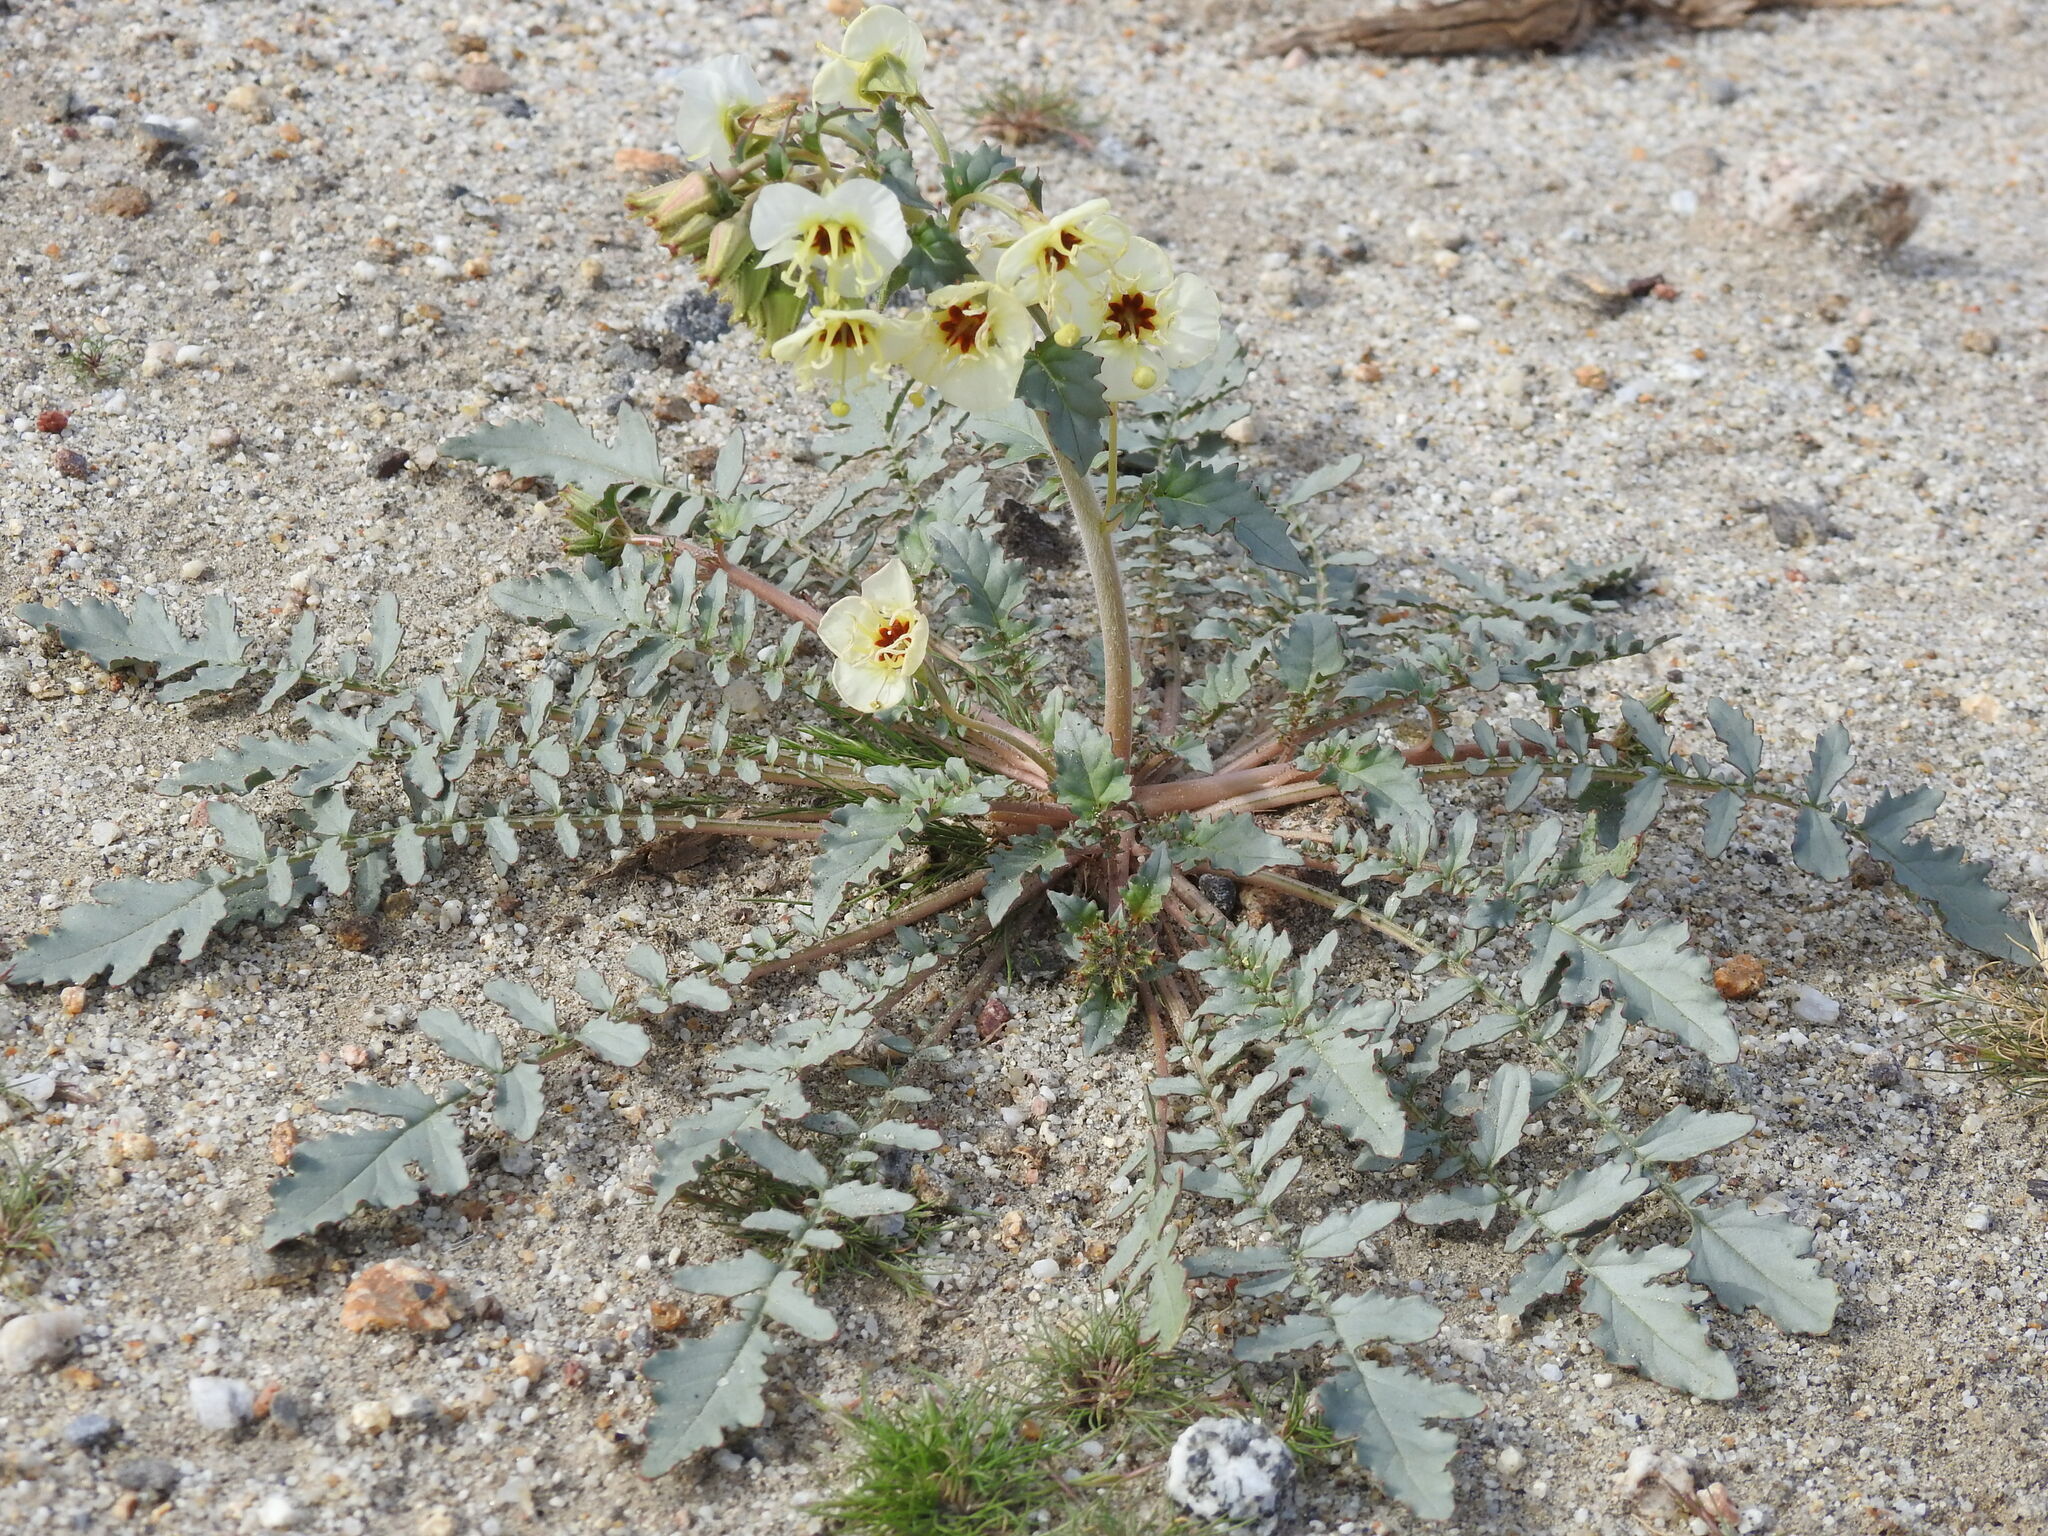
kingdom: Plantae
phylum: Tracheophyta
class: Magnoliopsida
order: Myrtales
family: Onagraceae
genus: Chylismia
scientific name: Chylismia claviformis
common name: Browneyes
